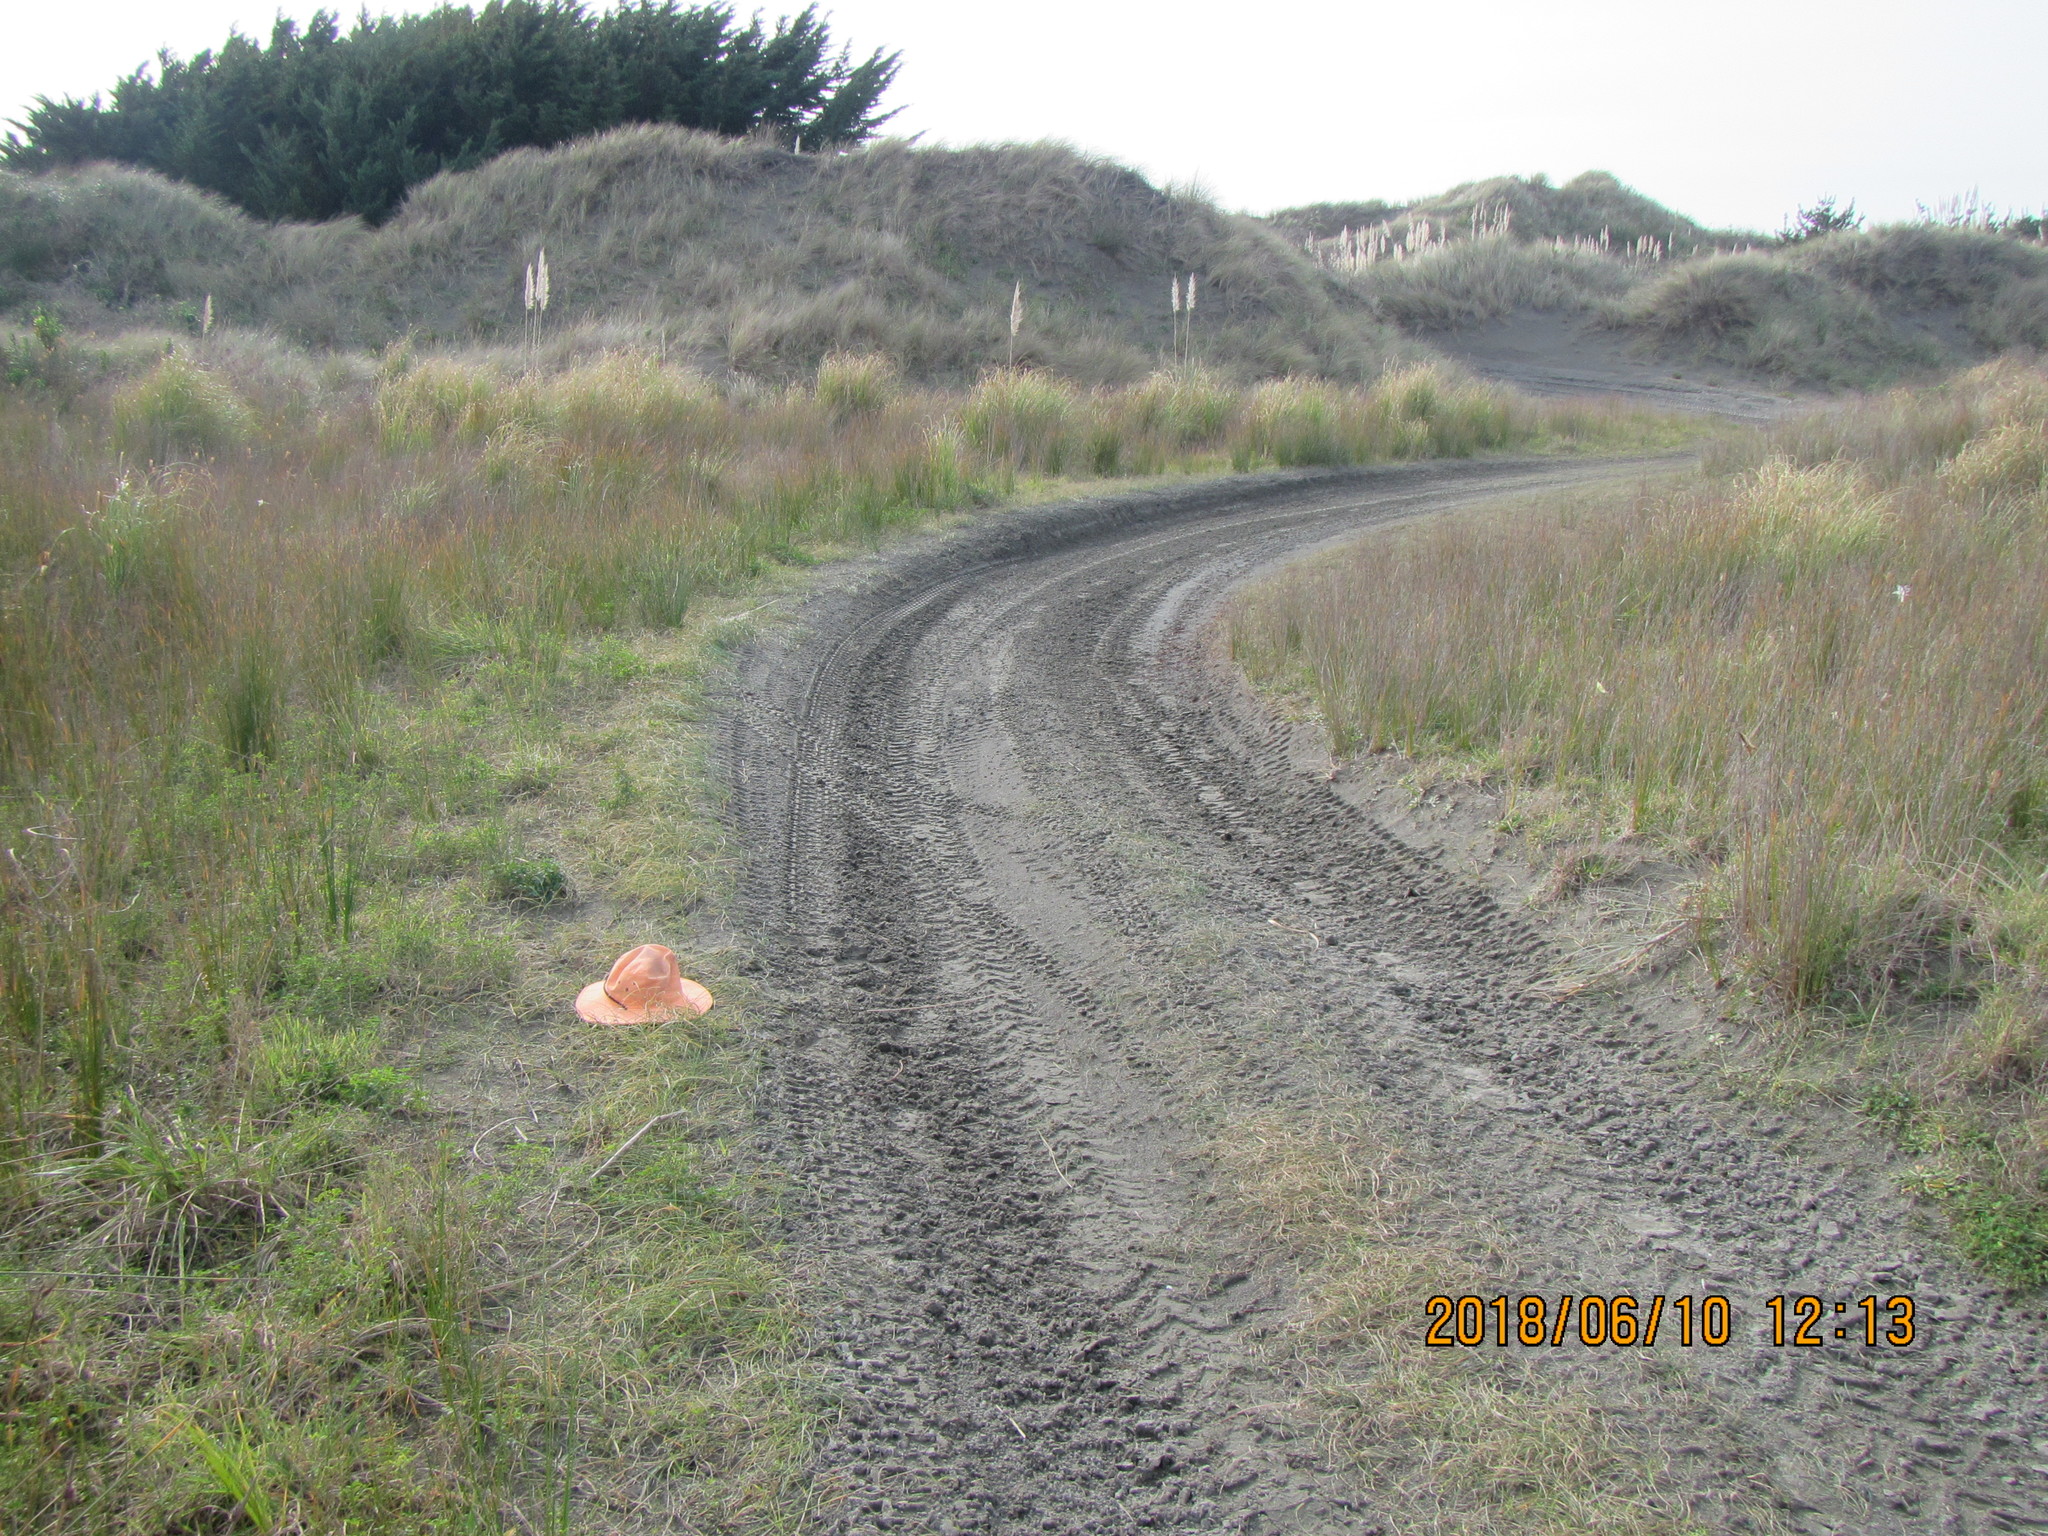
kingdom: Plantae
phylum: Tracheophyta
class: Liliopsida
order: Poales
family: Cyperaceae
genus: Carex
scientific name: Carex pumila
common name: Dwarf sedge
